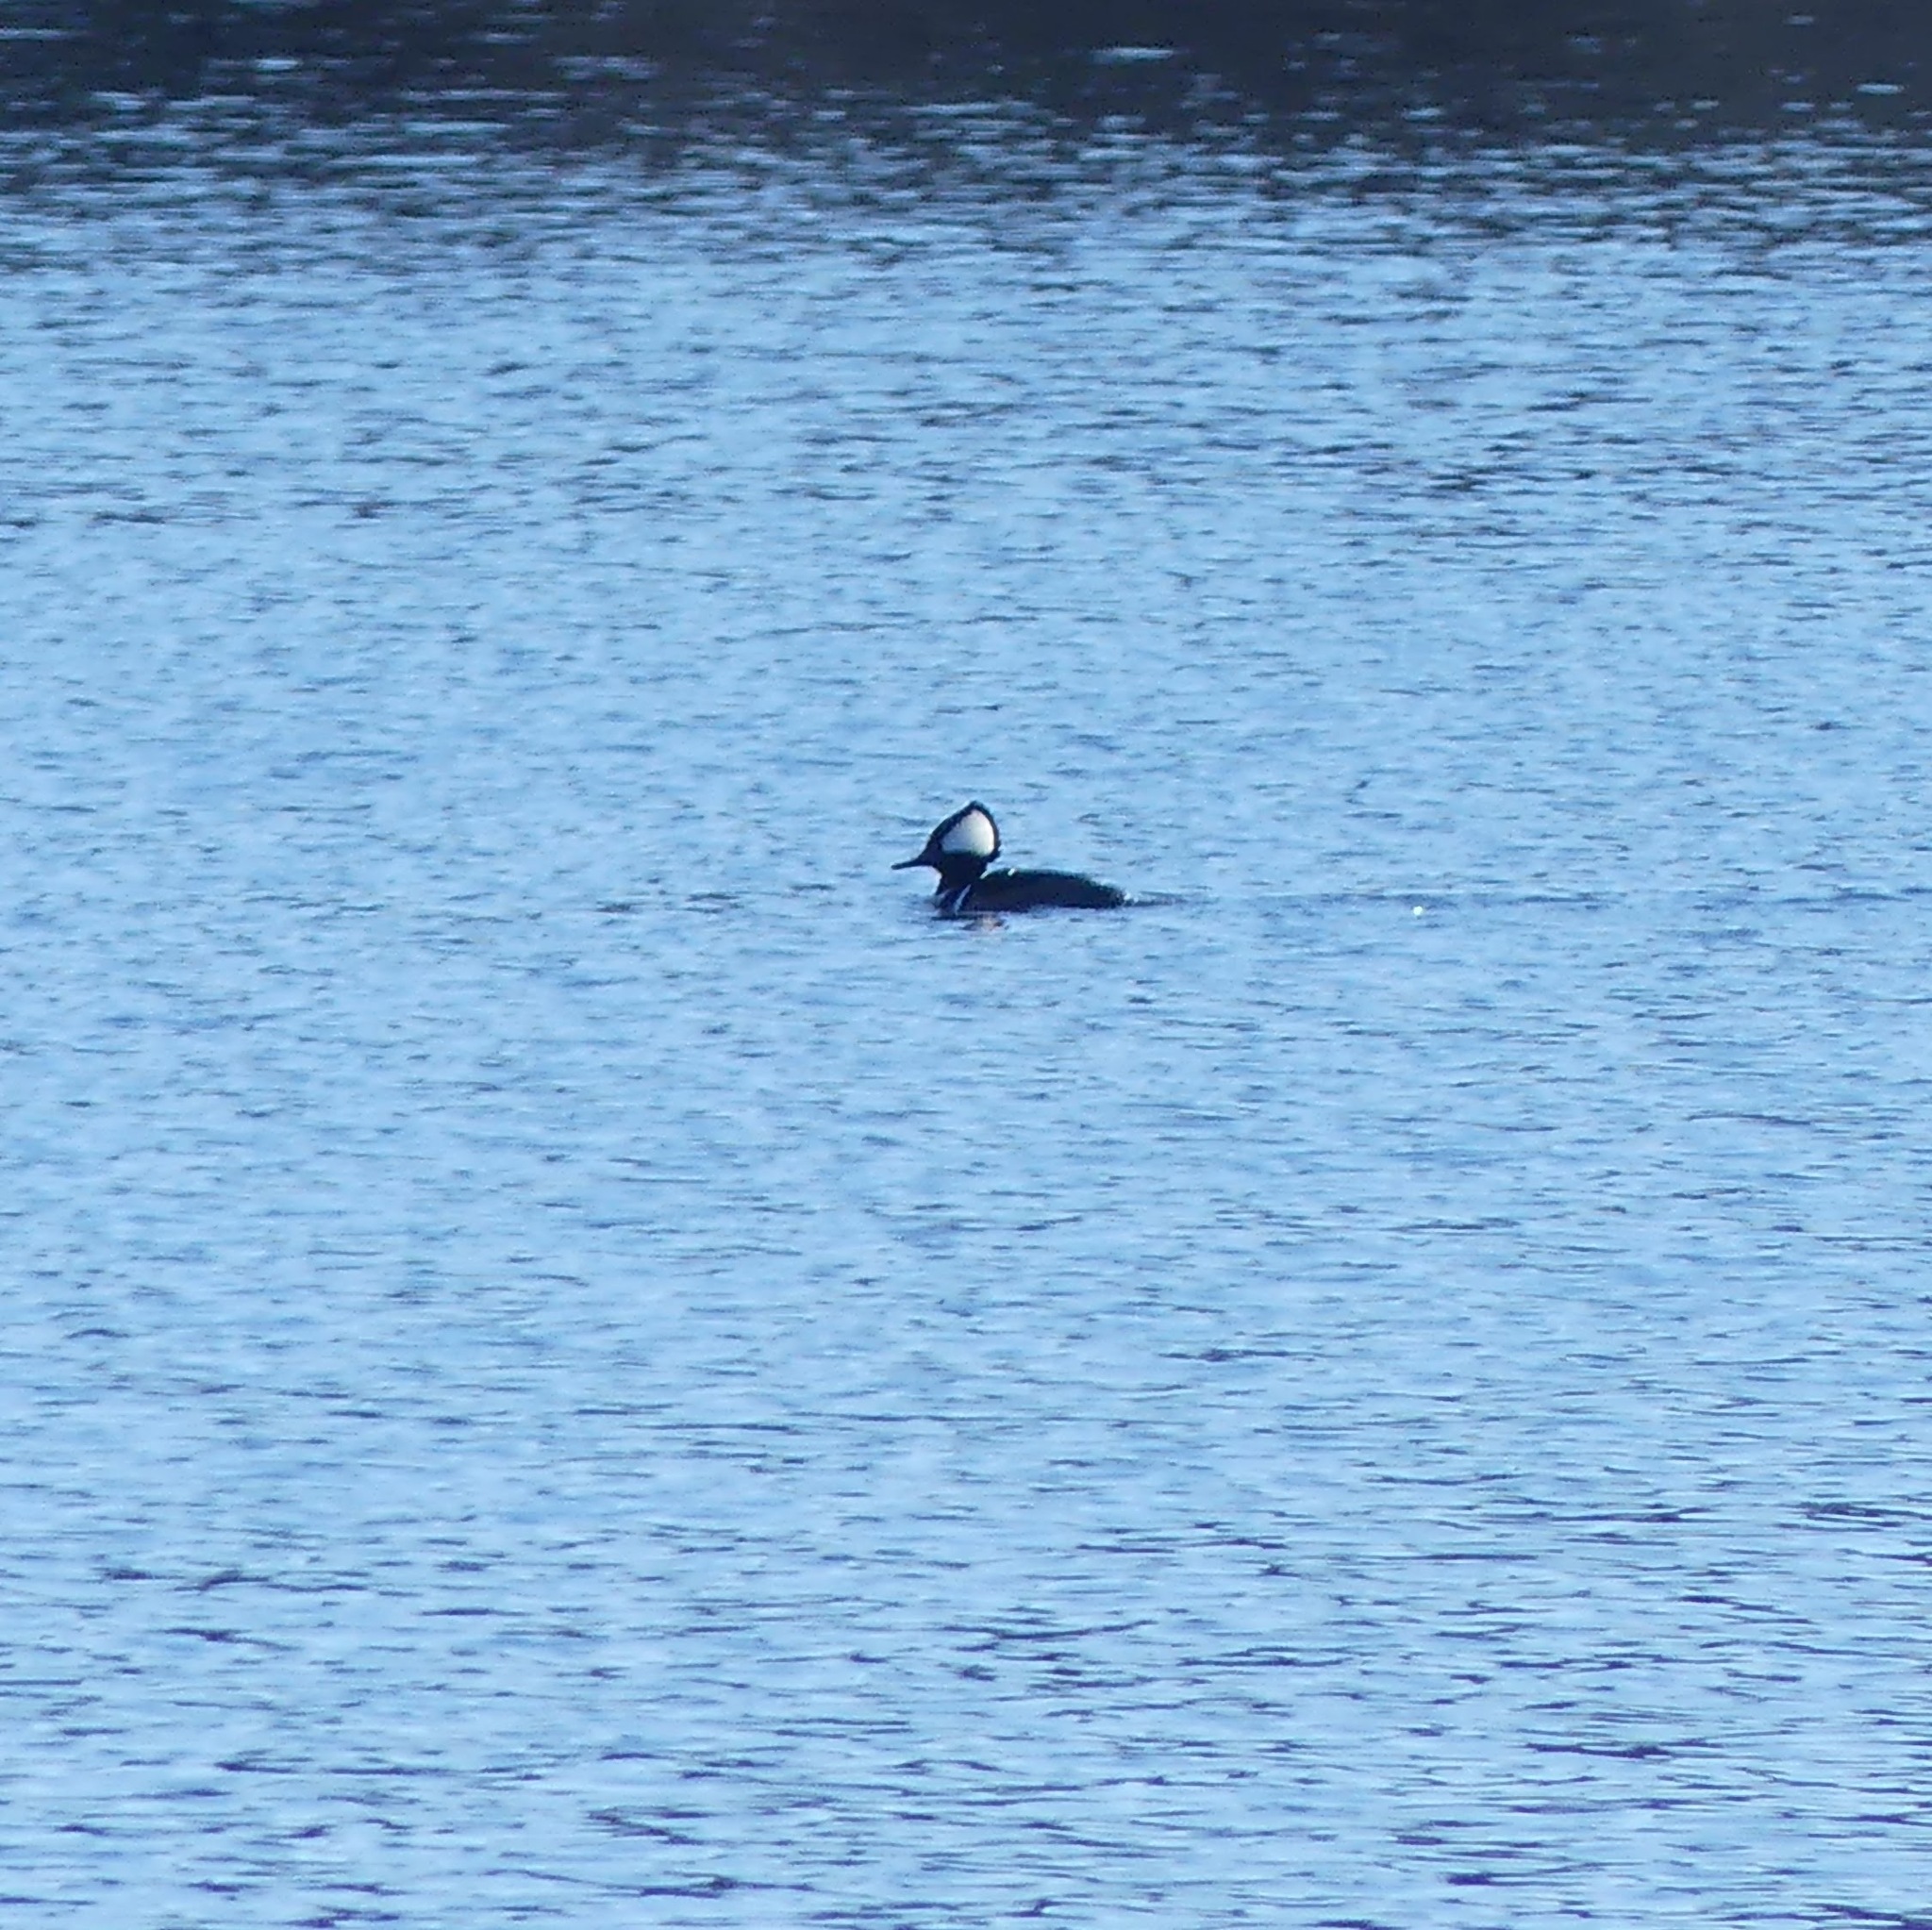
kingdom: Animalia
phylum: Chordata
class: Aves
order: Anseriformes
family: Anatidae
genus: Lophodytes
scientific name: Lophodytes cucullatus
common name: Hooded merganser
